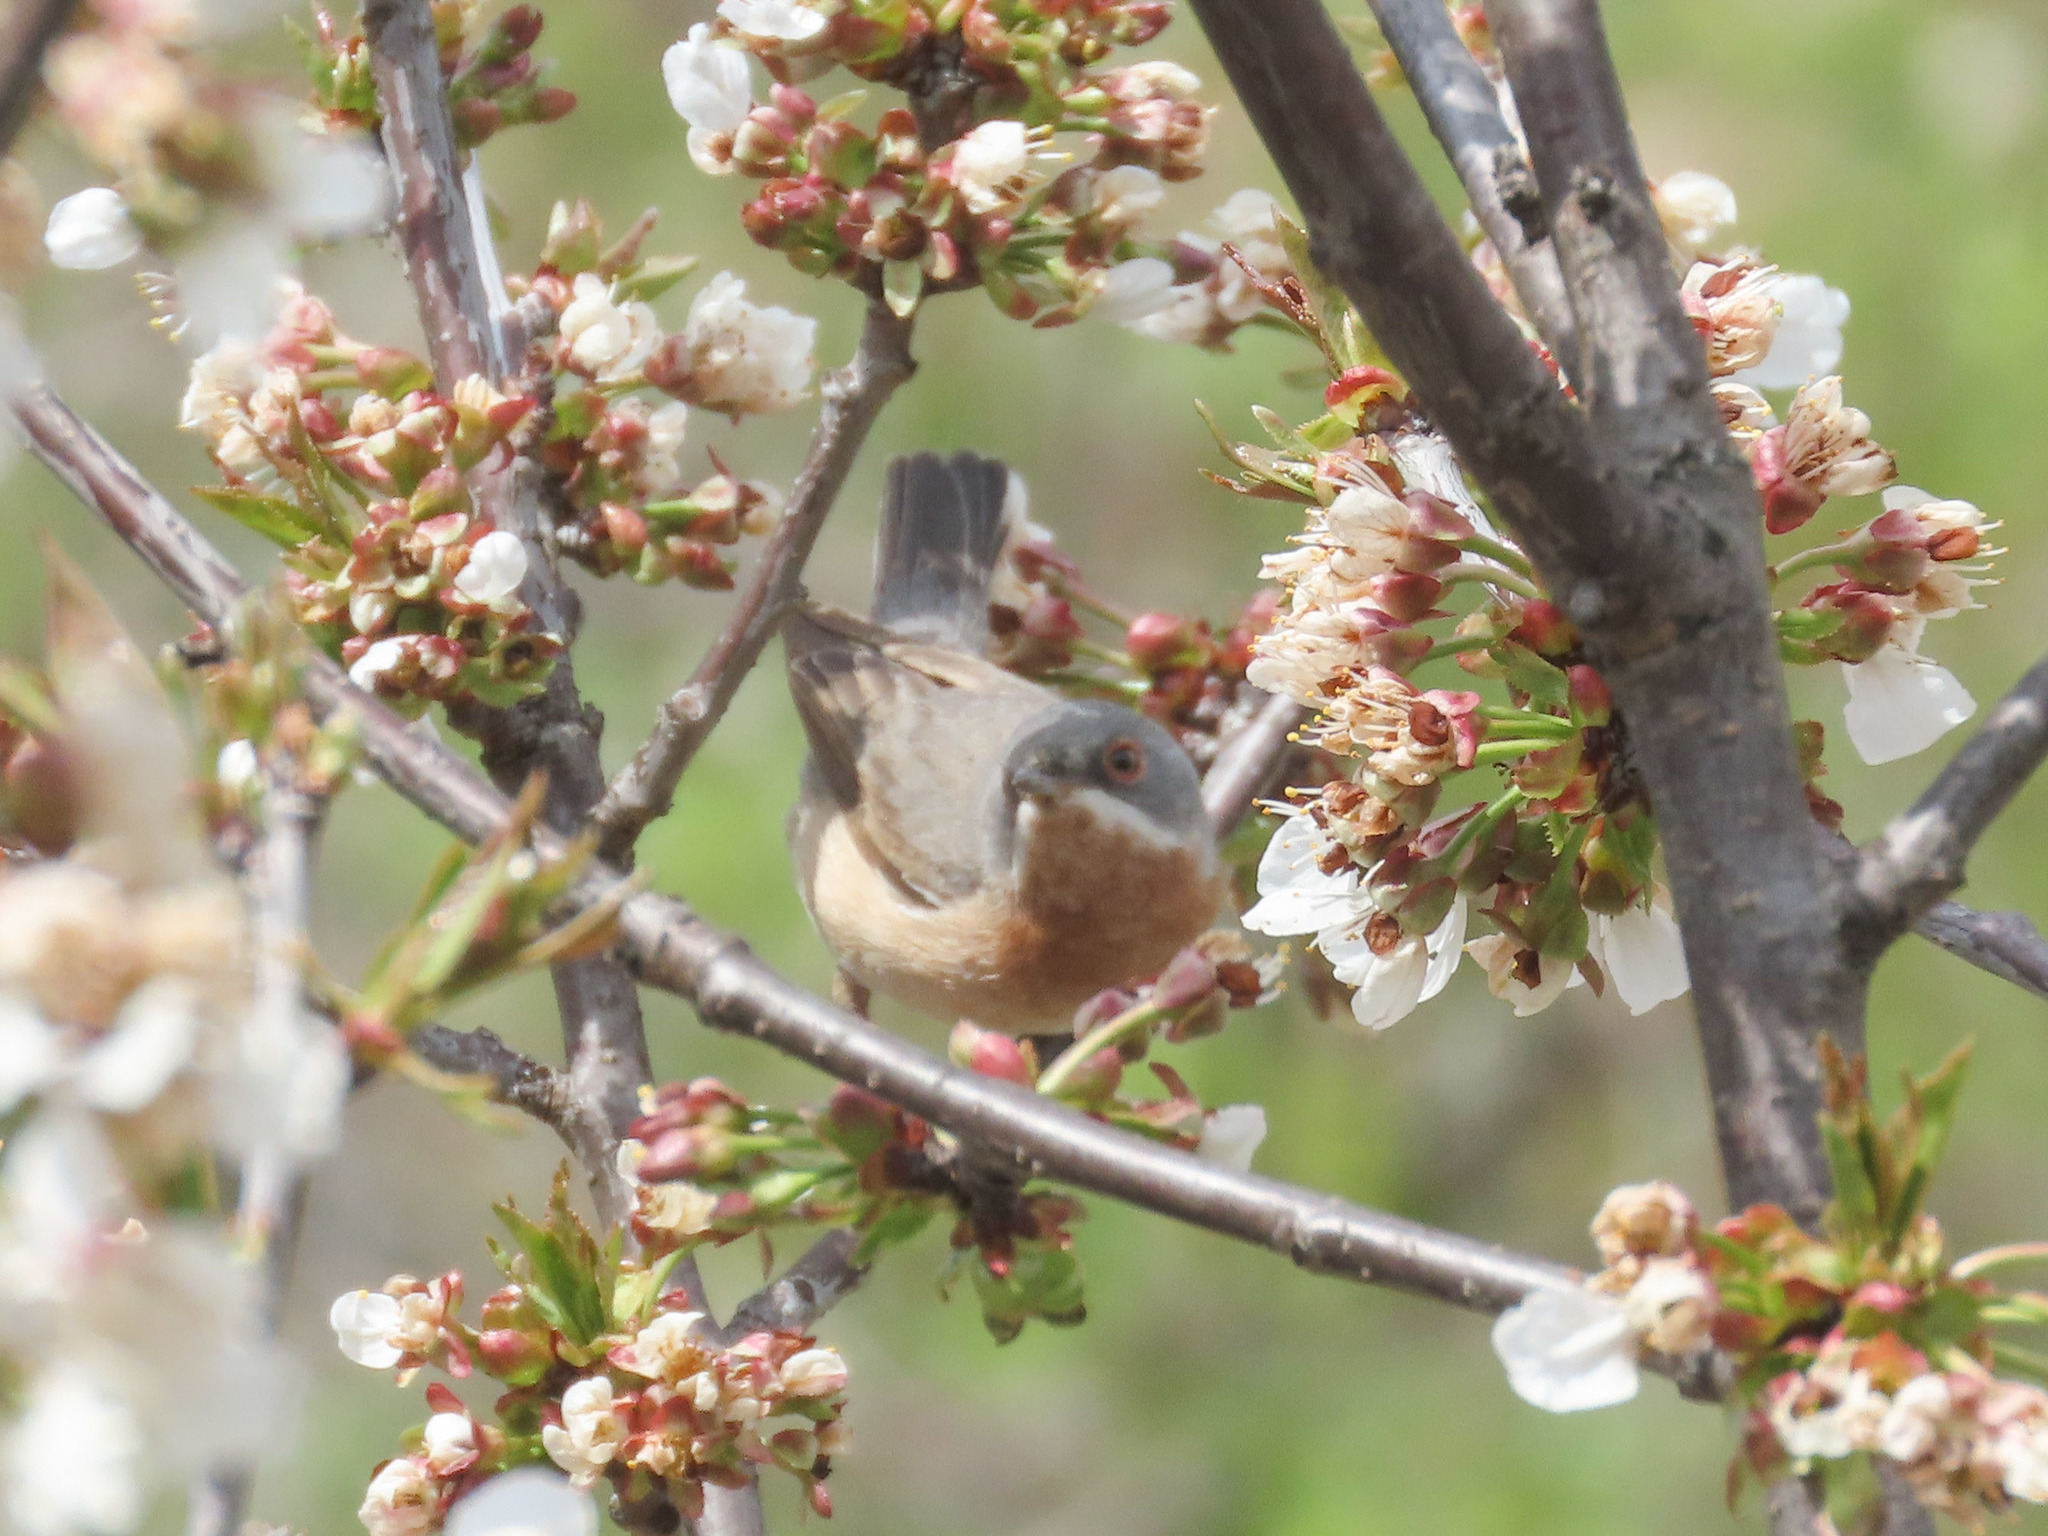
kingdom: Animalia
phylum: Chordata
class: Aves
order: Passeriformes
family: Sylviidae
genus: Curruca
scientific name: Curruca cantillans
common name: Subalpine warbler
